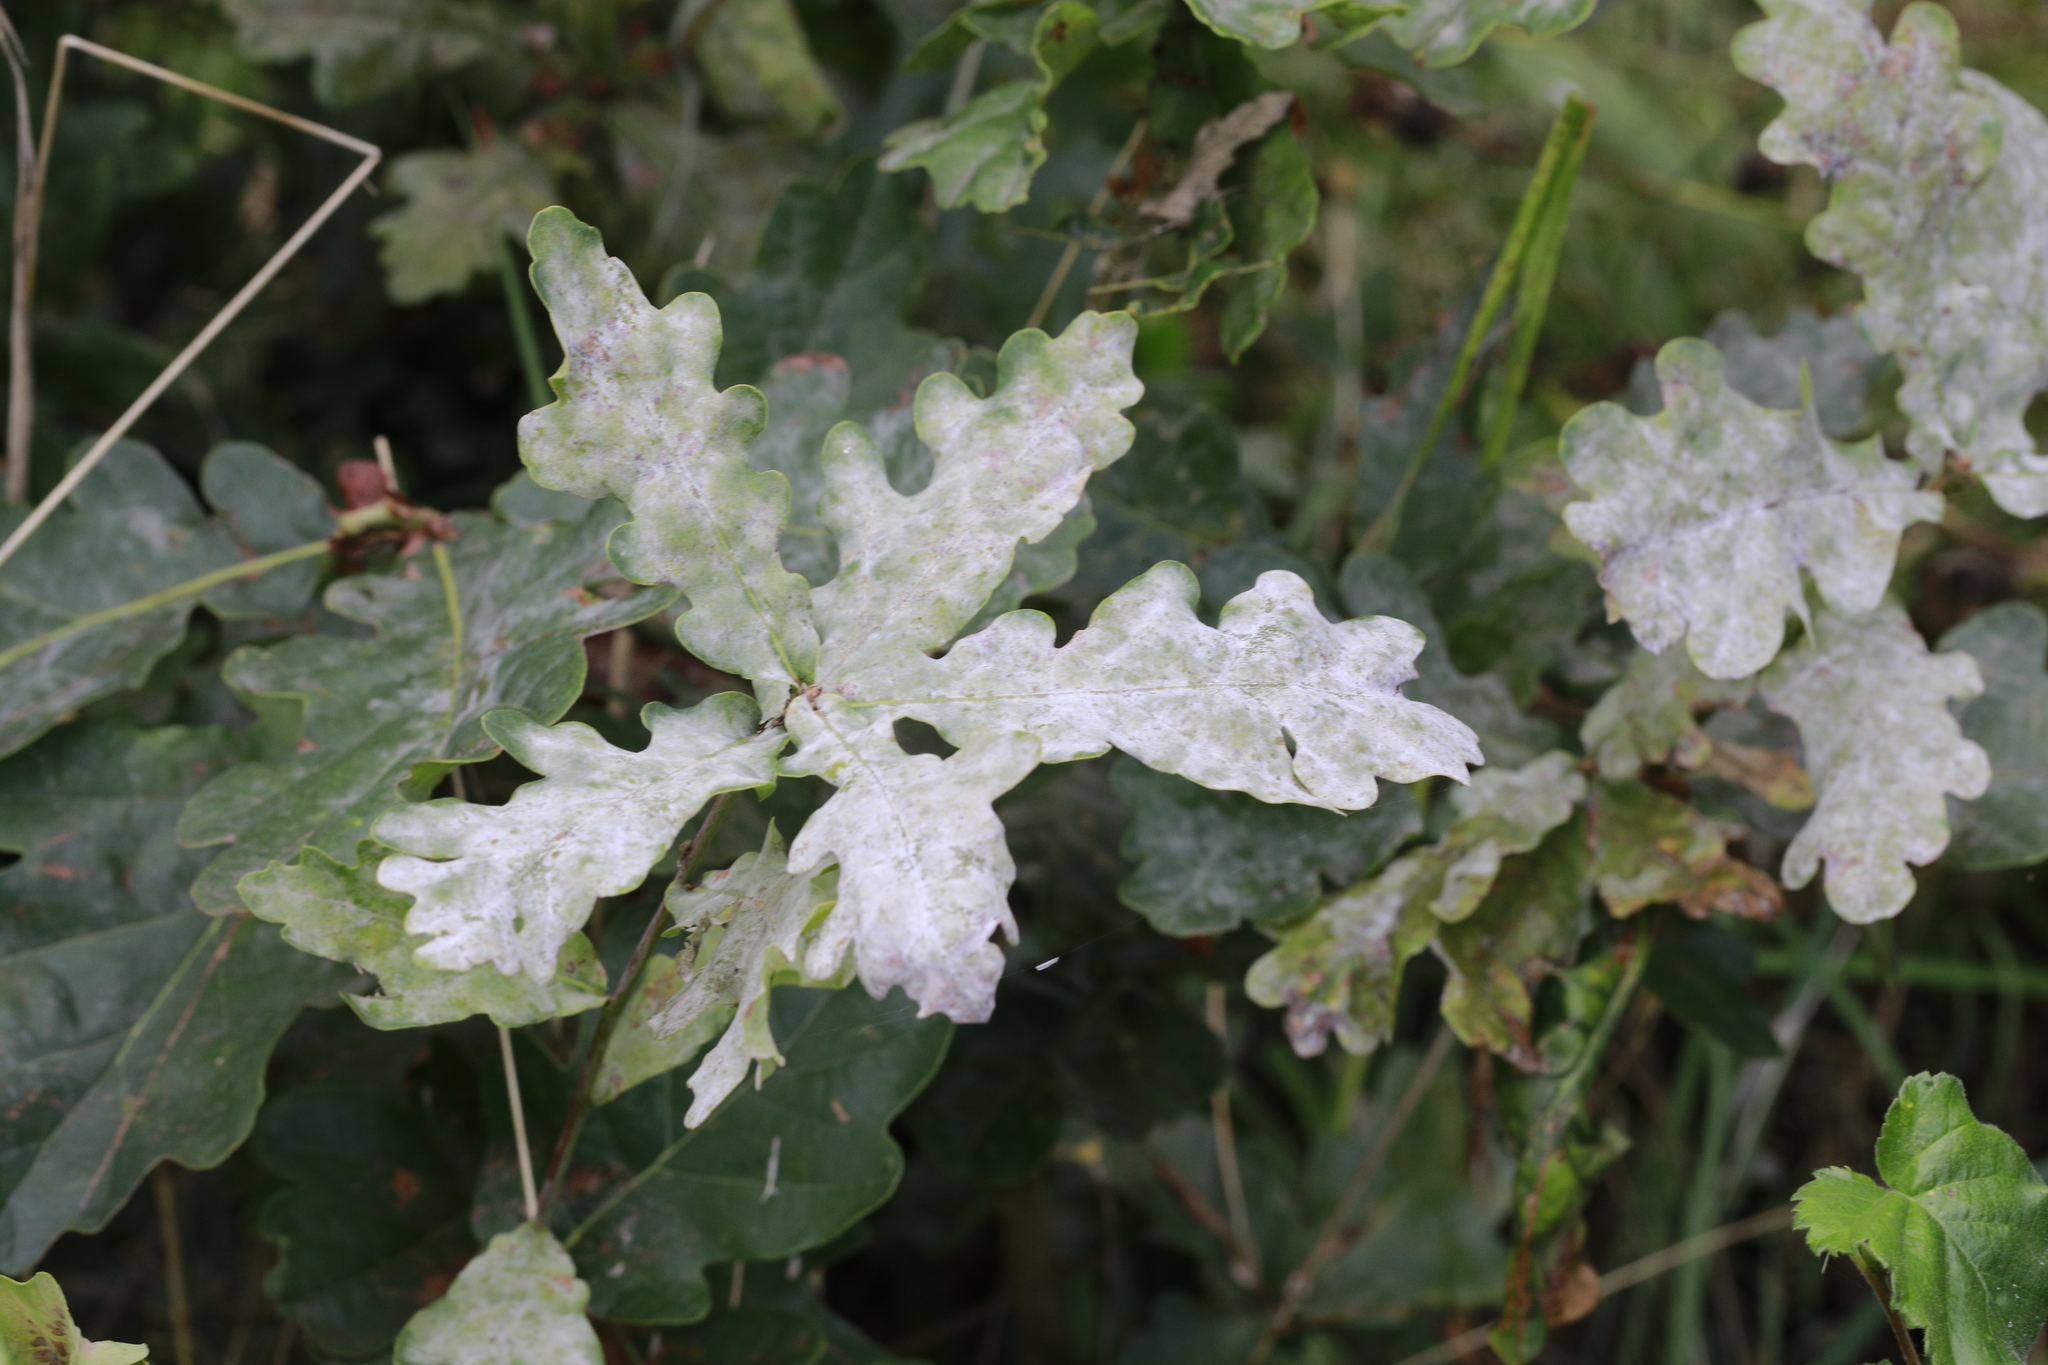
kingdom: Fungi
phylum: Ascomycota
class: Leotiomycetes
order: Helotiales
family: Erysiphaceae
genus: Erysiphe
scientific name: Erysiphe alphitoides
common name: Oak mildew
